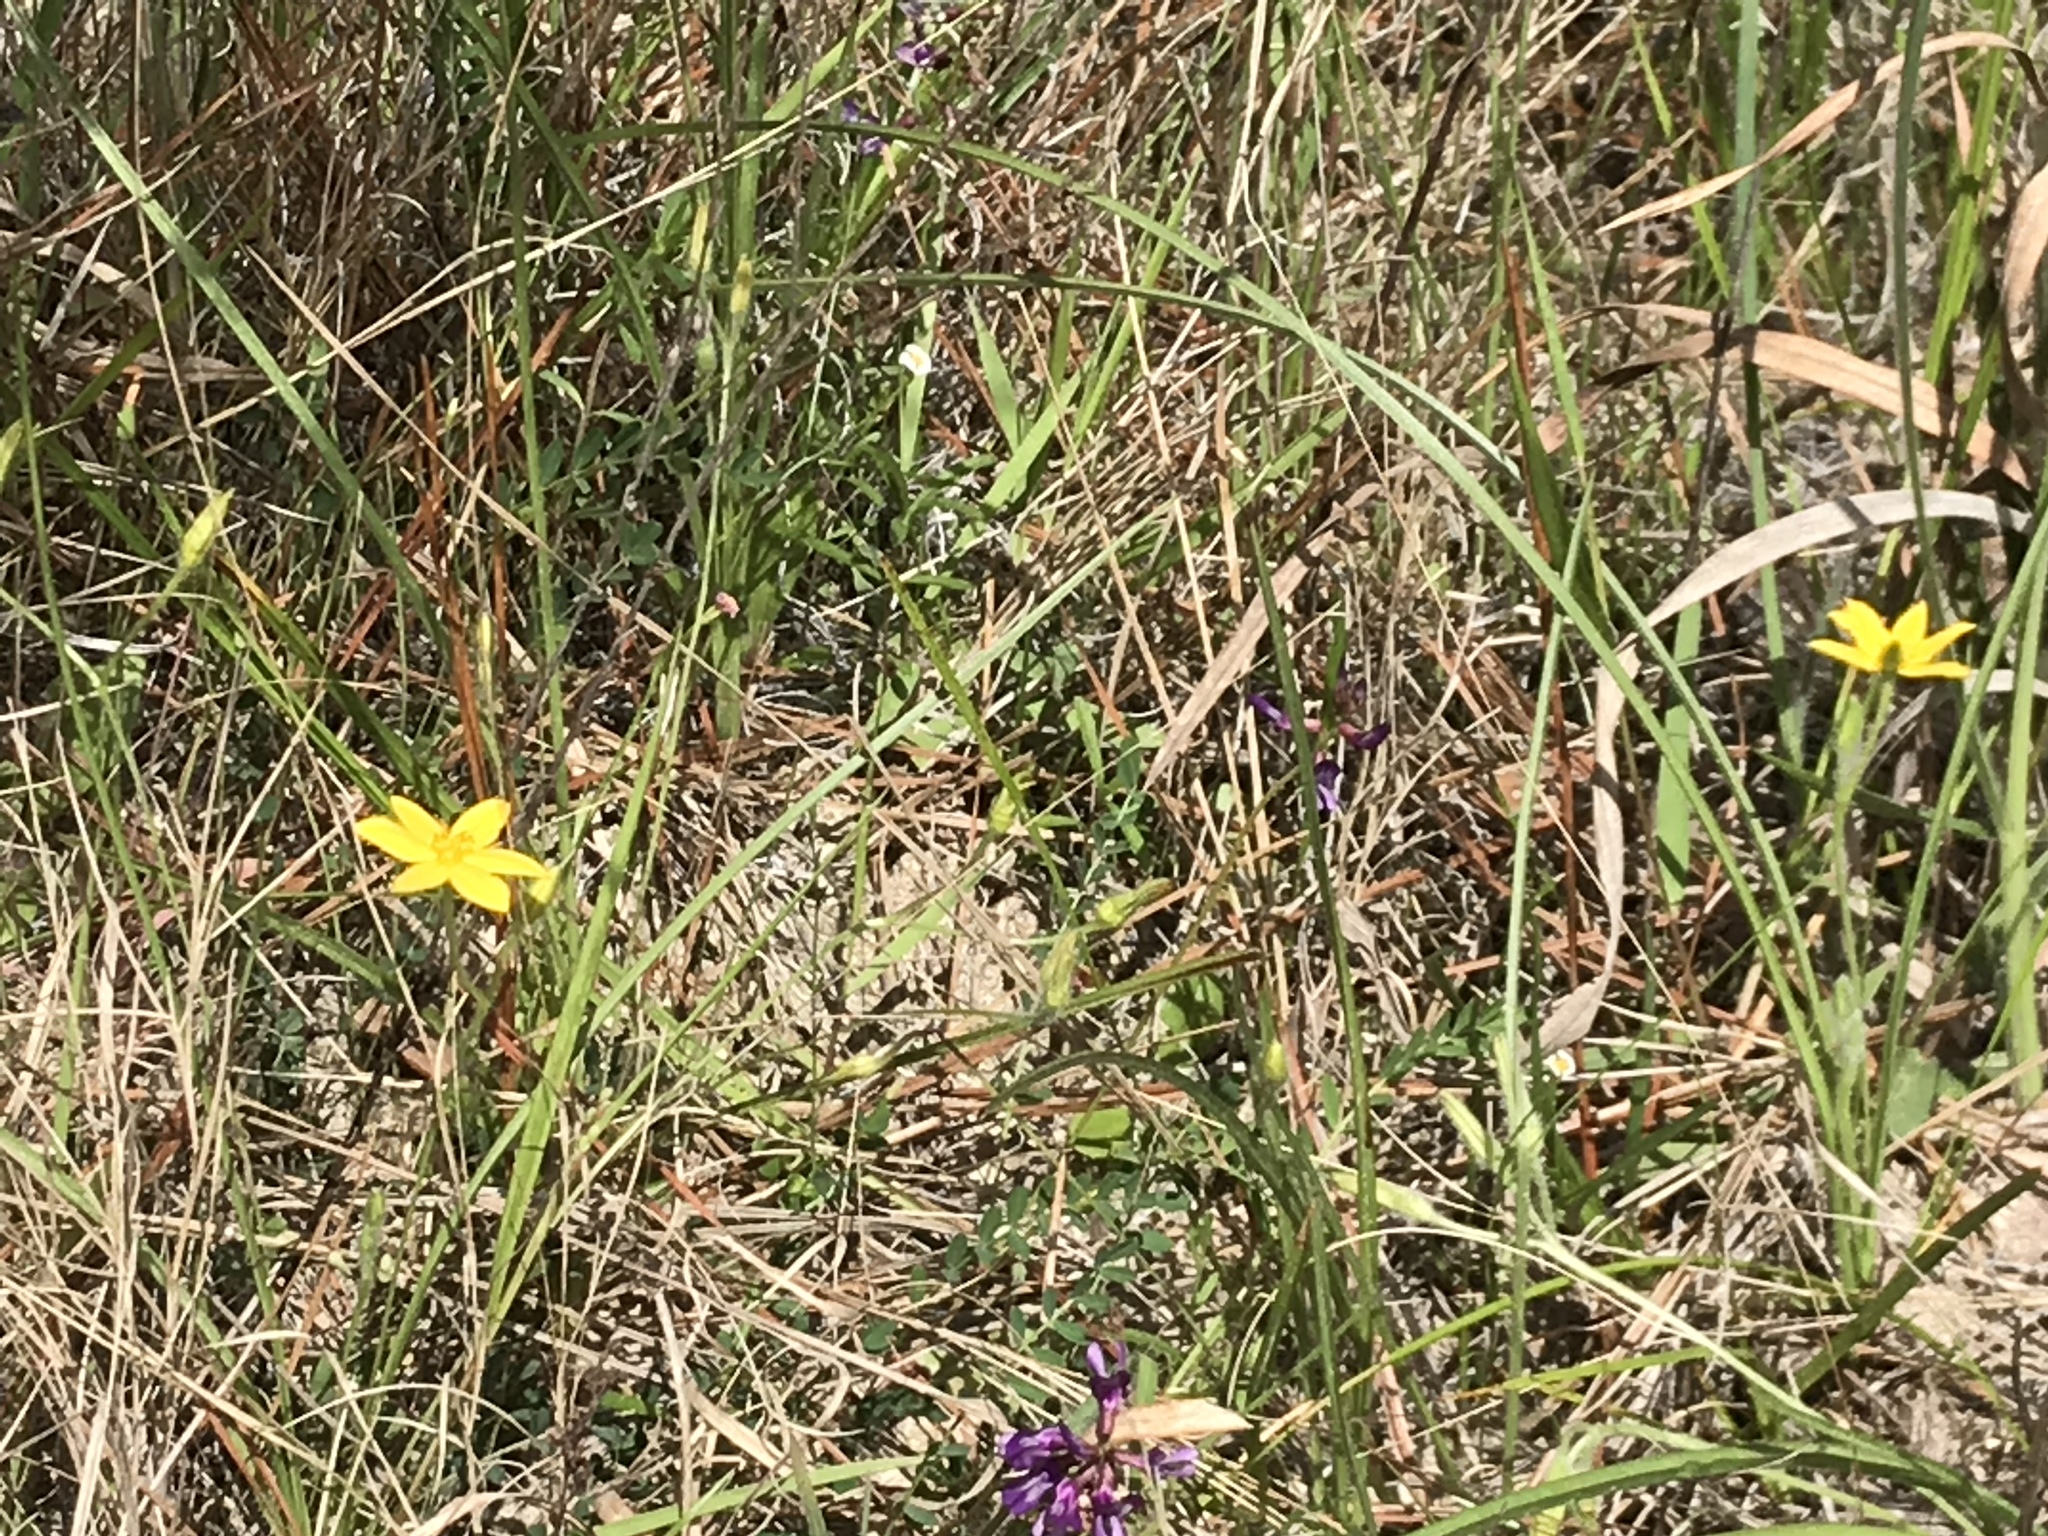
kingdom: Plantae
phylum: Tracheophyta
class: Liliopsida
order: Asparagales
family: Hypoxidaceae
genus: Hypoxis
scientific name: Hypoxis hirsuta
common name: Common goldstar
